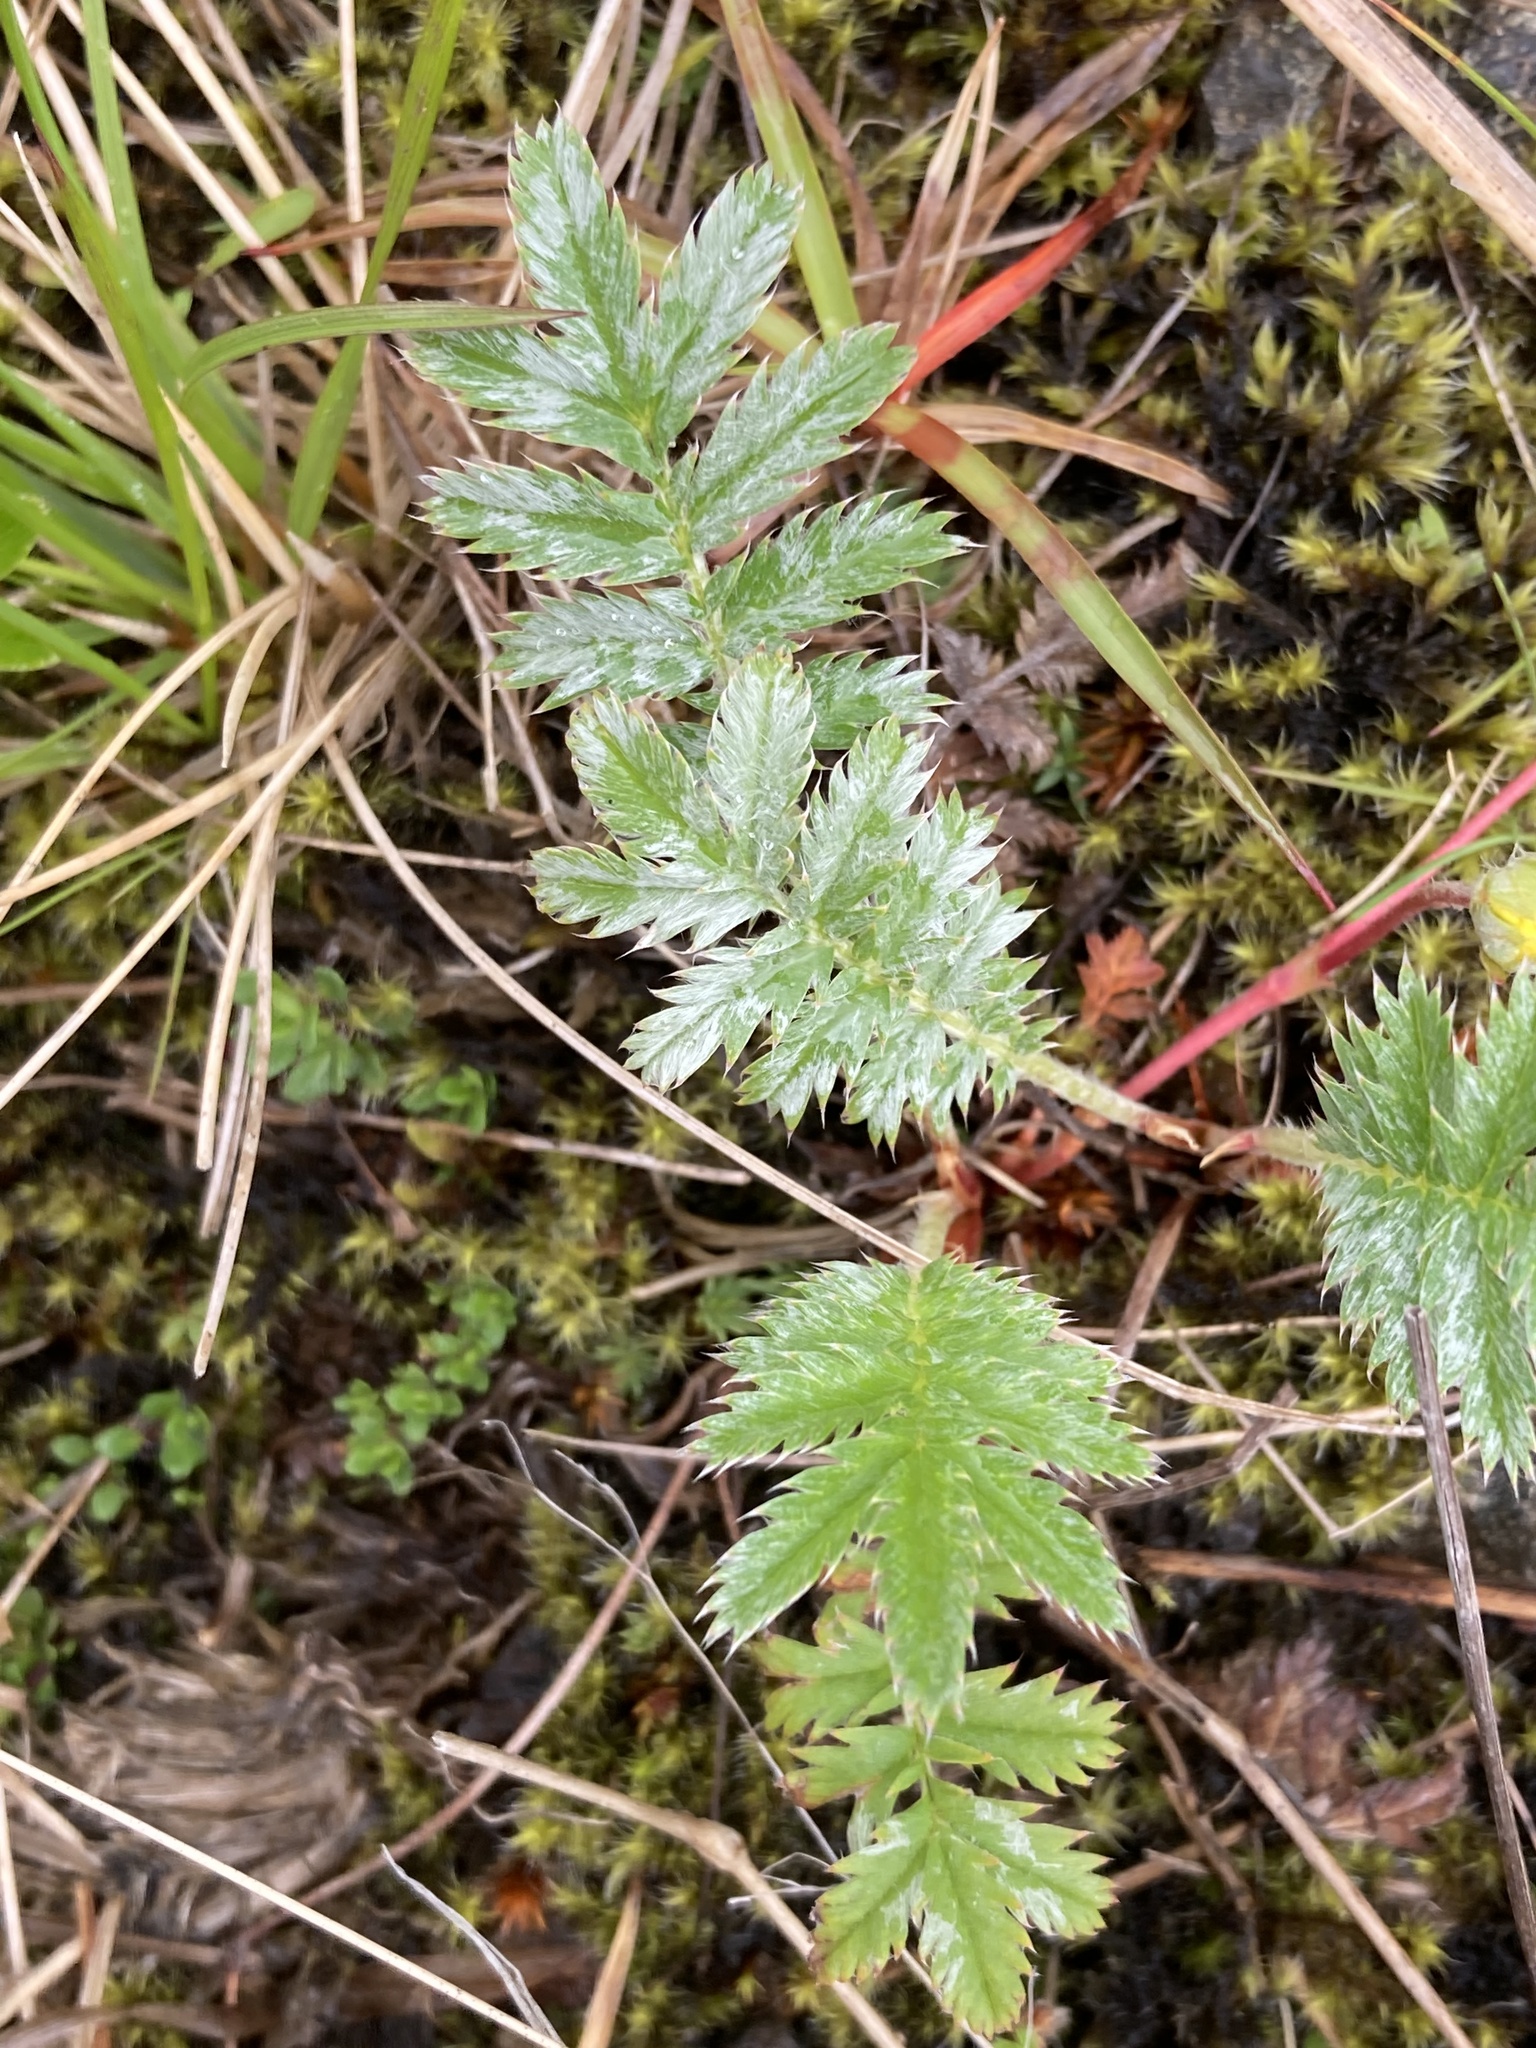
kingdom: Plantae
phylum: Tracheophyta
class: Magnoliopsida
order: Rosales
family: Rosaceae
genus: Argentina
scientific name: Argentina anserina
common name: Common silverweed
